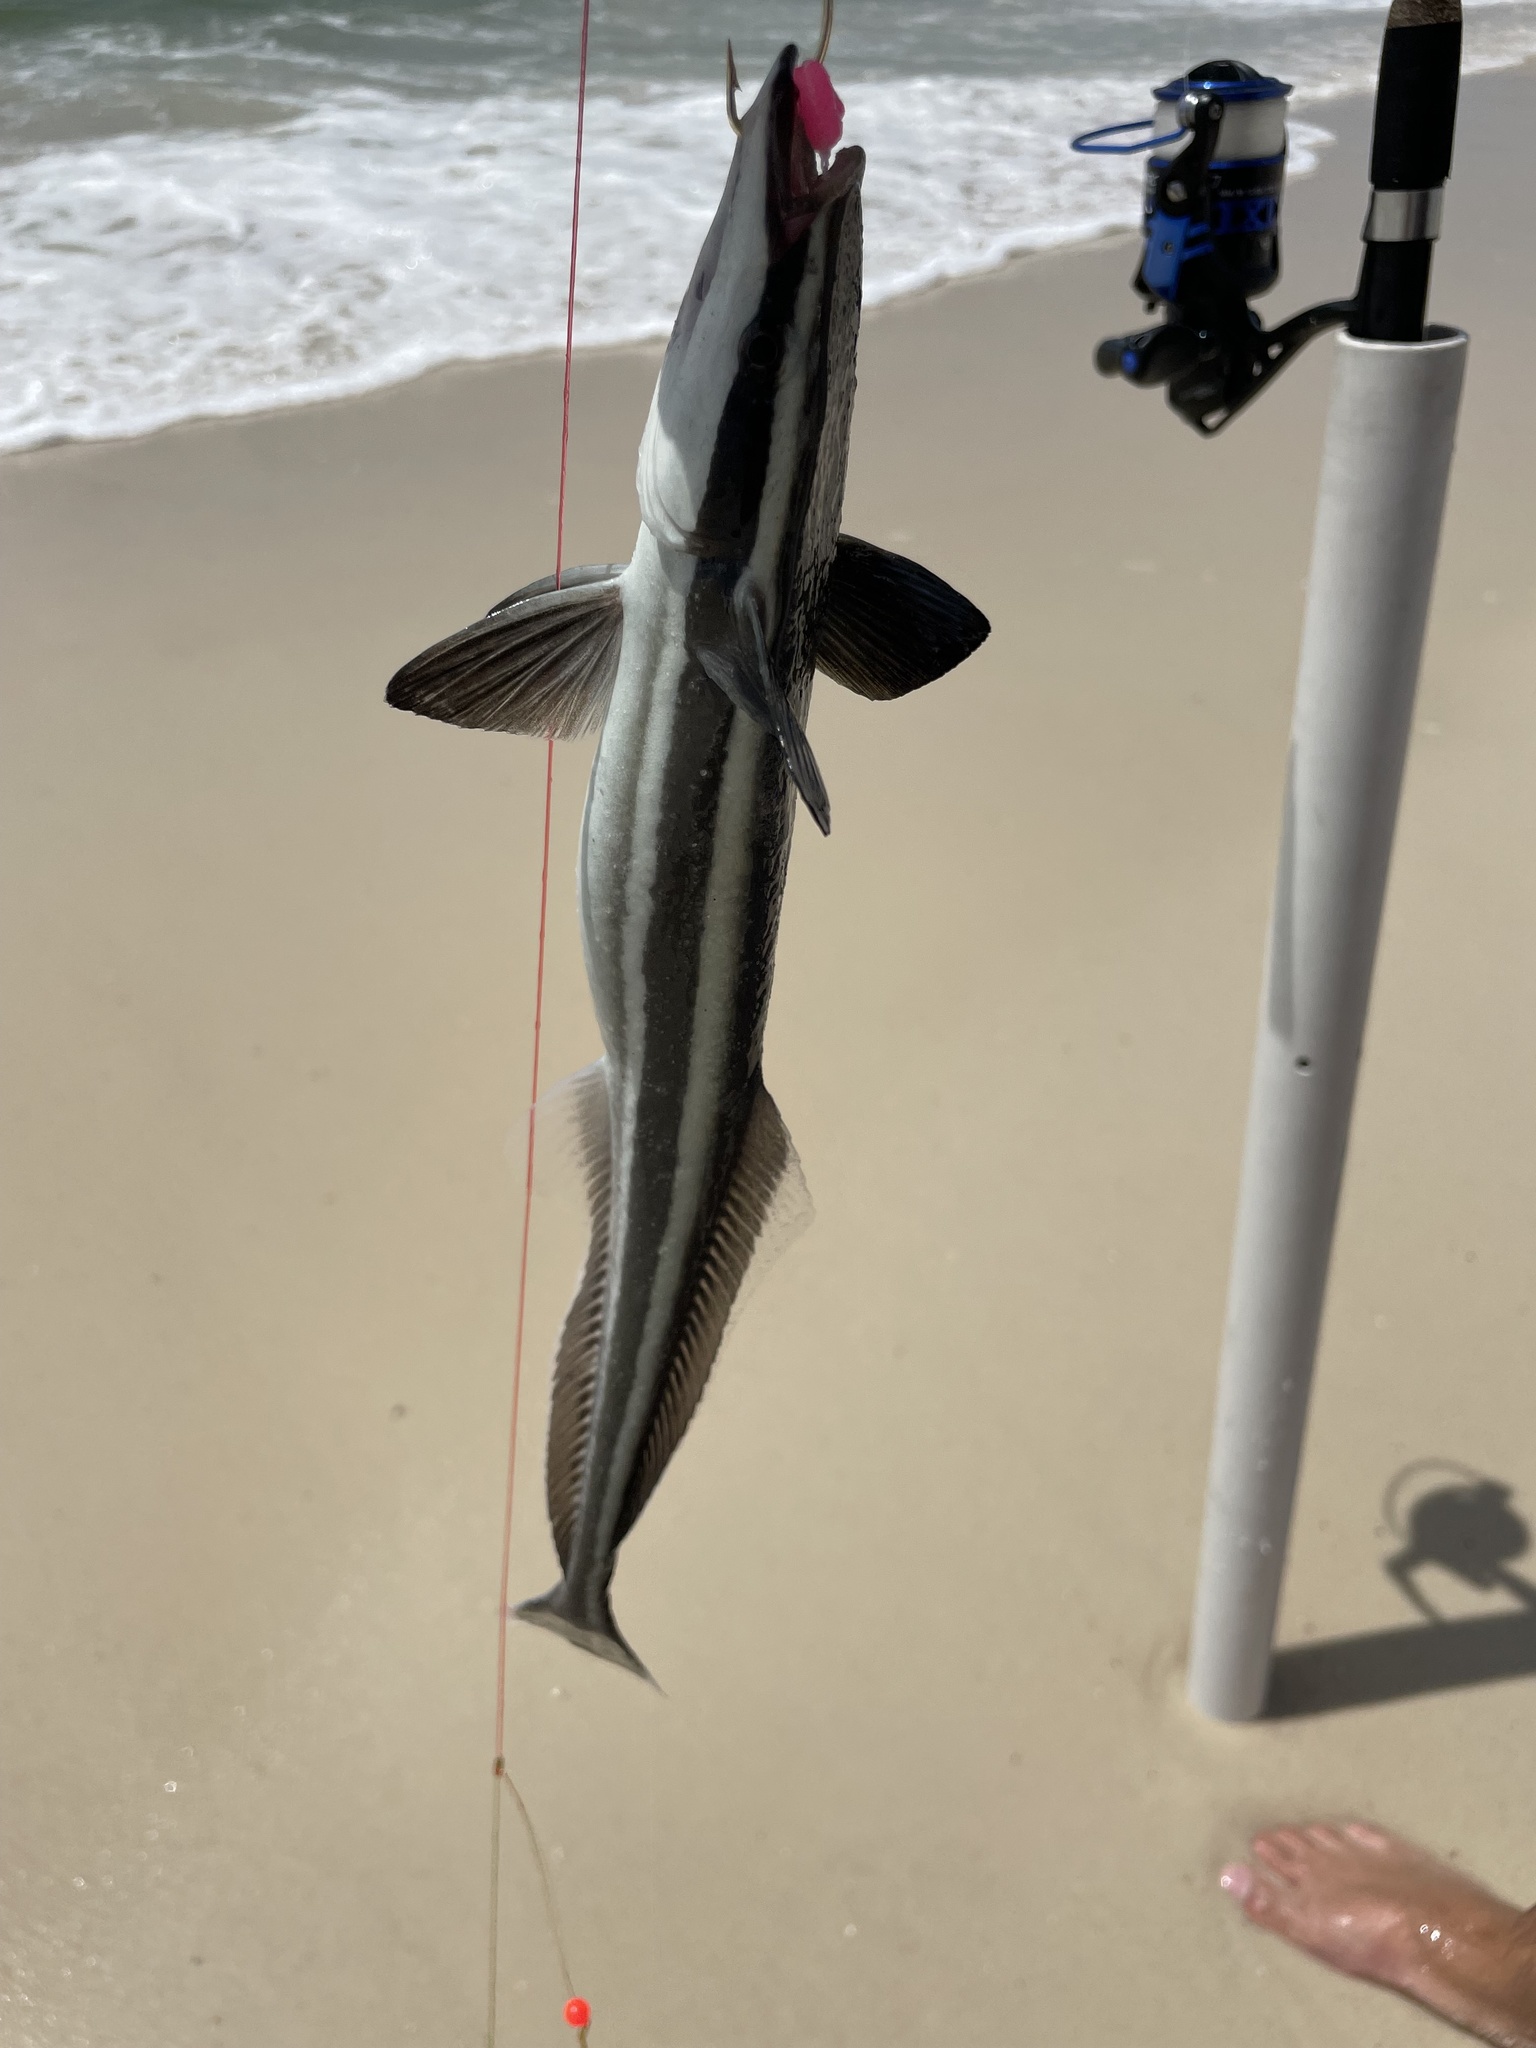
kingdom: Animalia
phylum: Chordata
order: Perciformes
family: Echeneidae
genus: Echeneis
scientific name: Echeneis naucrates
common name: Sharksucker
